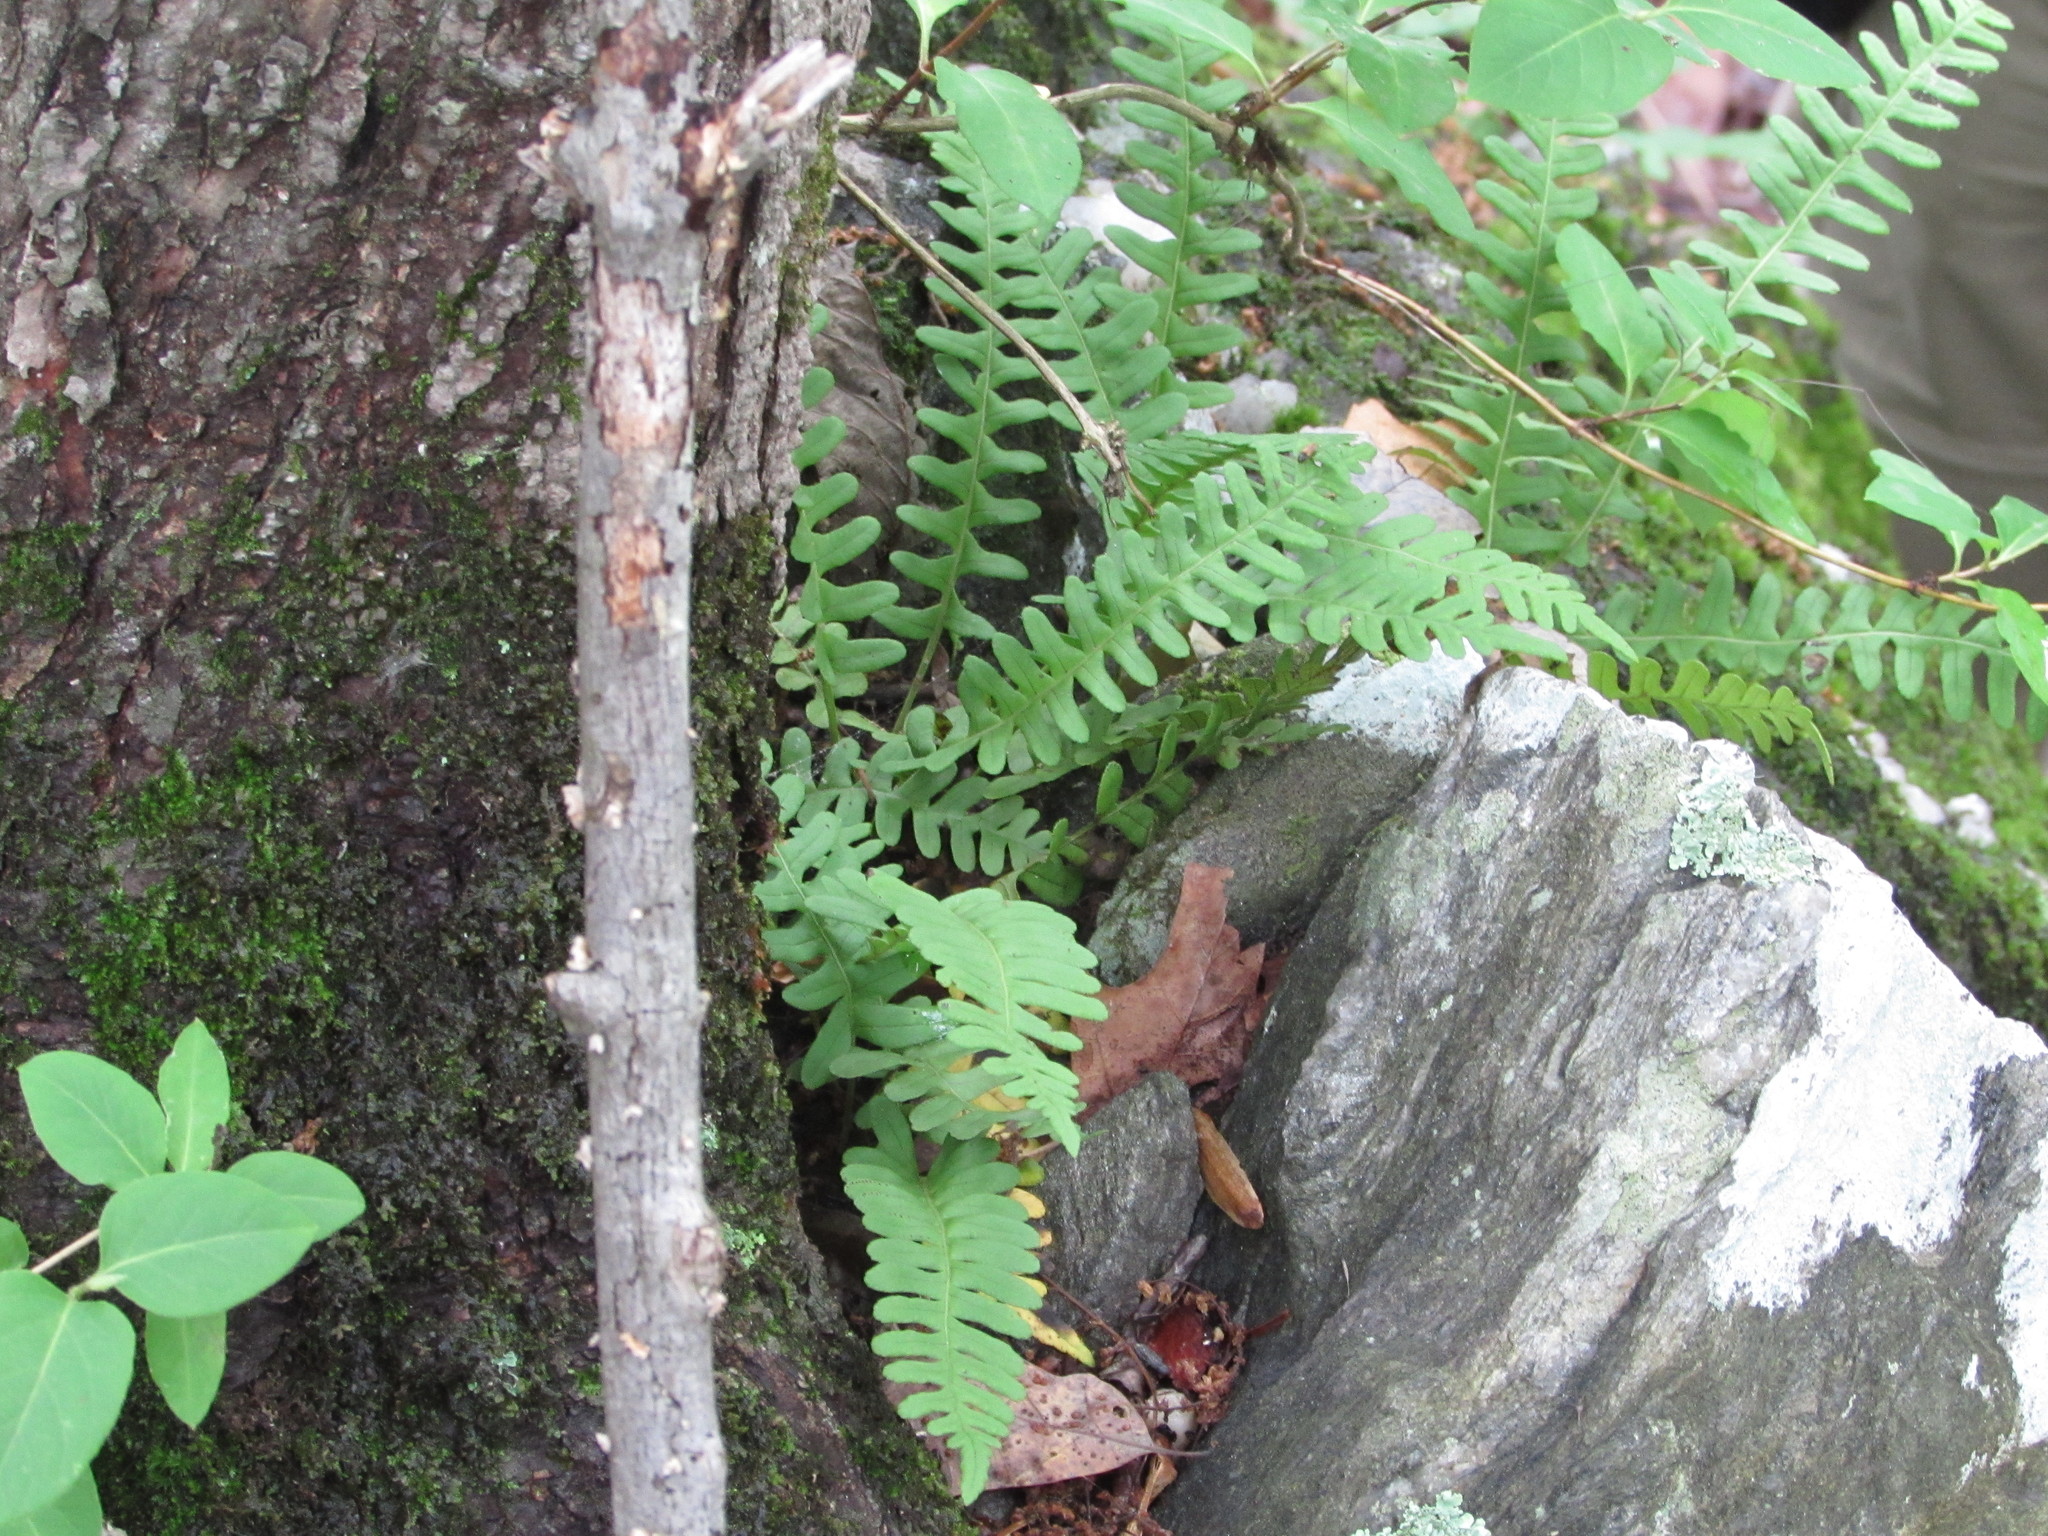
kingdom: Plantae
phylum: Tracheophyta
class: Polypodiopsida
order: Polypodiales
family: Polypodiaceae
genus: Polypodium
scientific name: Polypodium virginianum
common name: American wall fern
